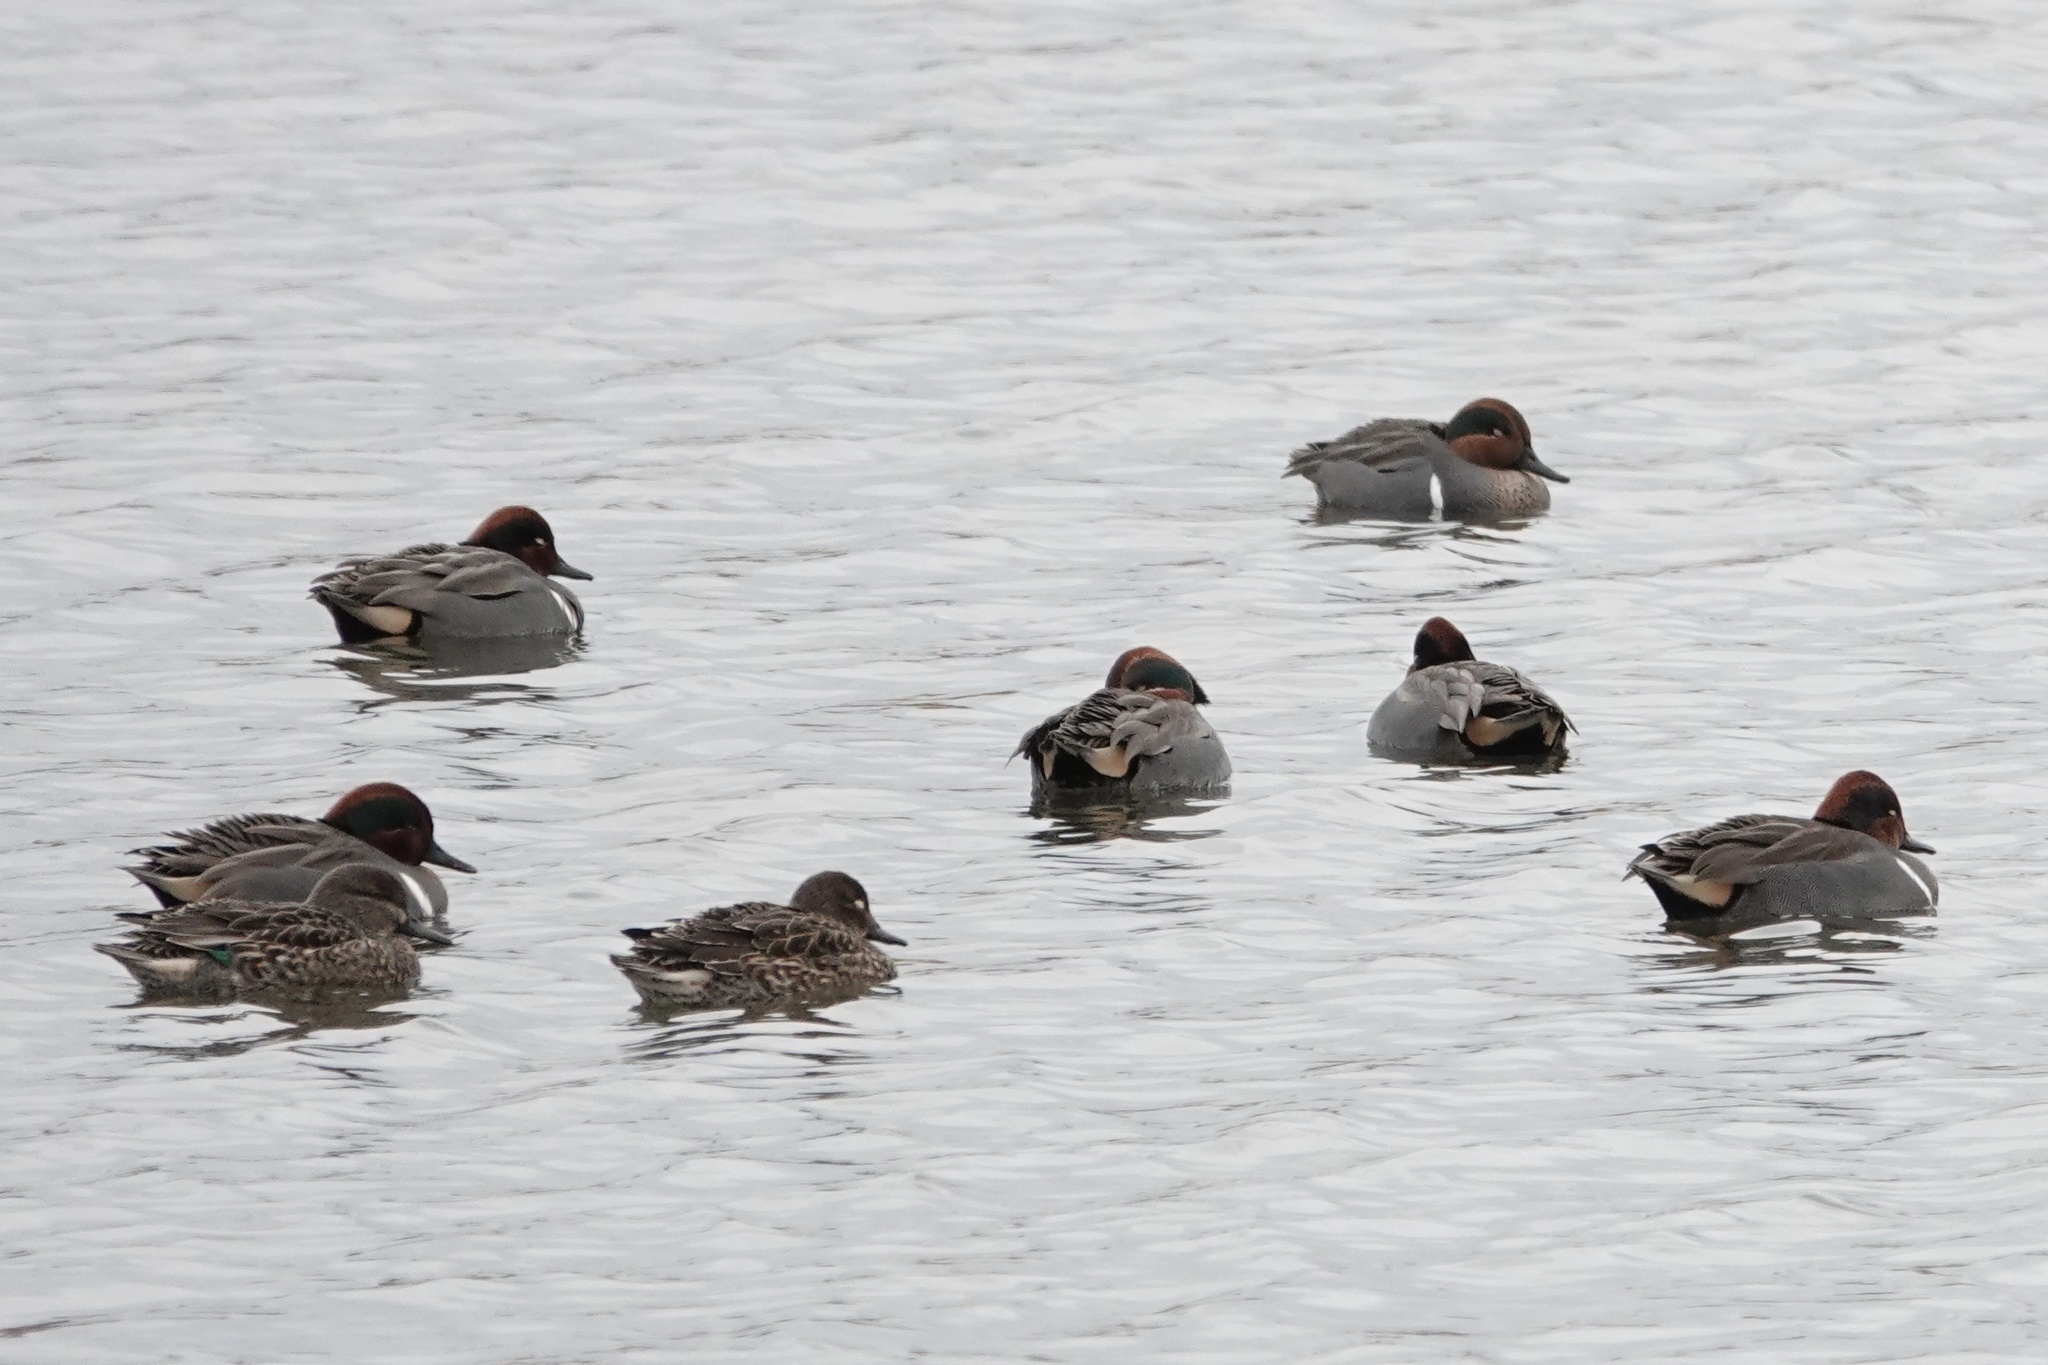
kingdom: Animalia
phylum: Chordata
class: Aves
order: Anseriformes
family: Anatidae
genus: Anas
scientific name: Anas crecca
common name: Eurasian teal
